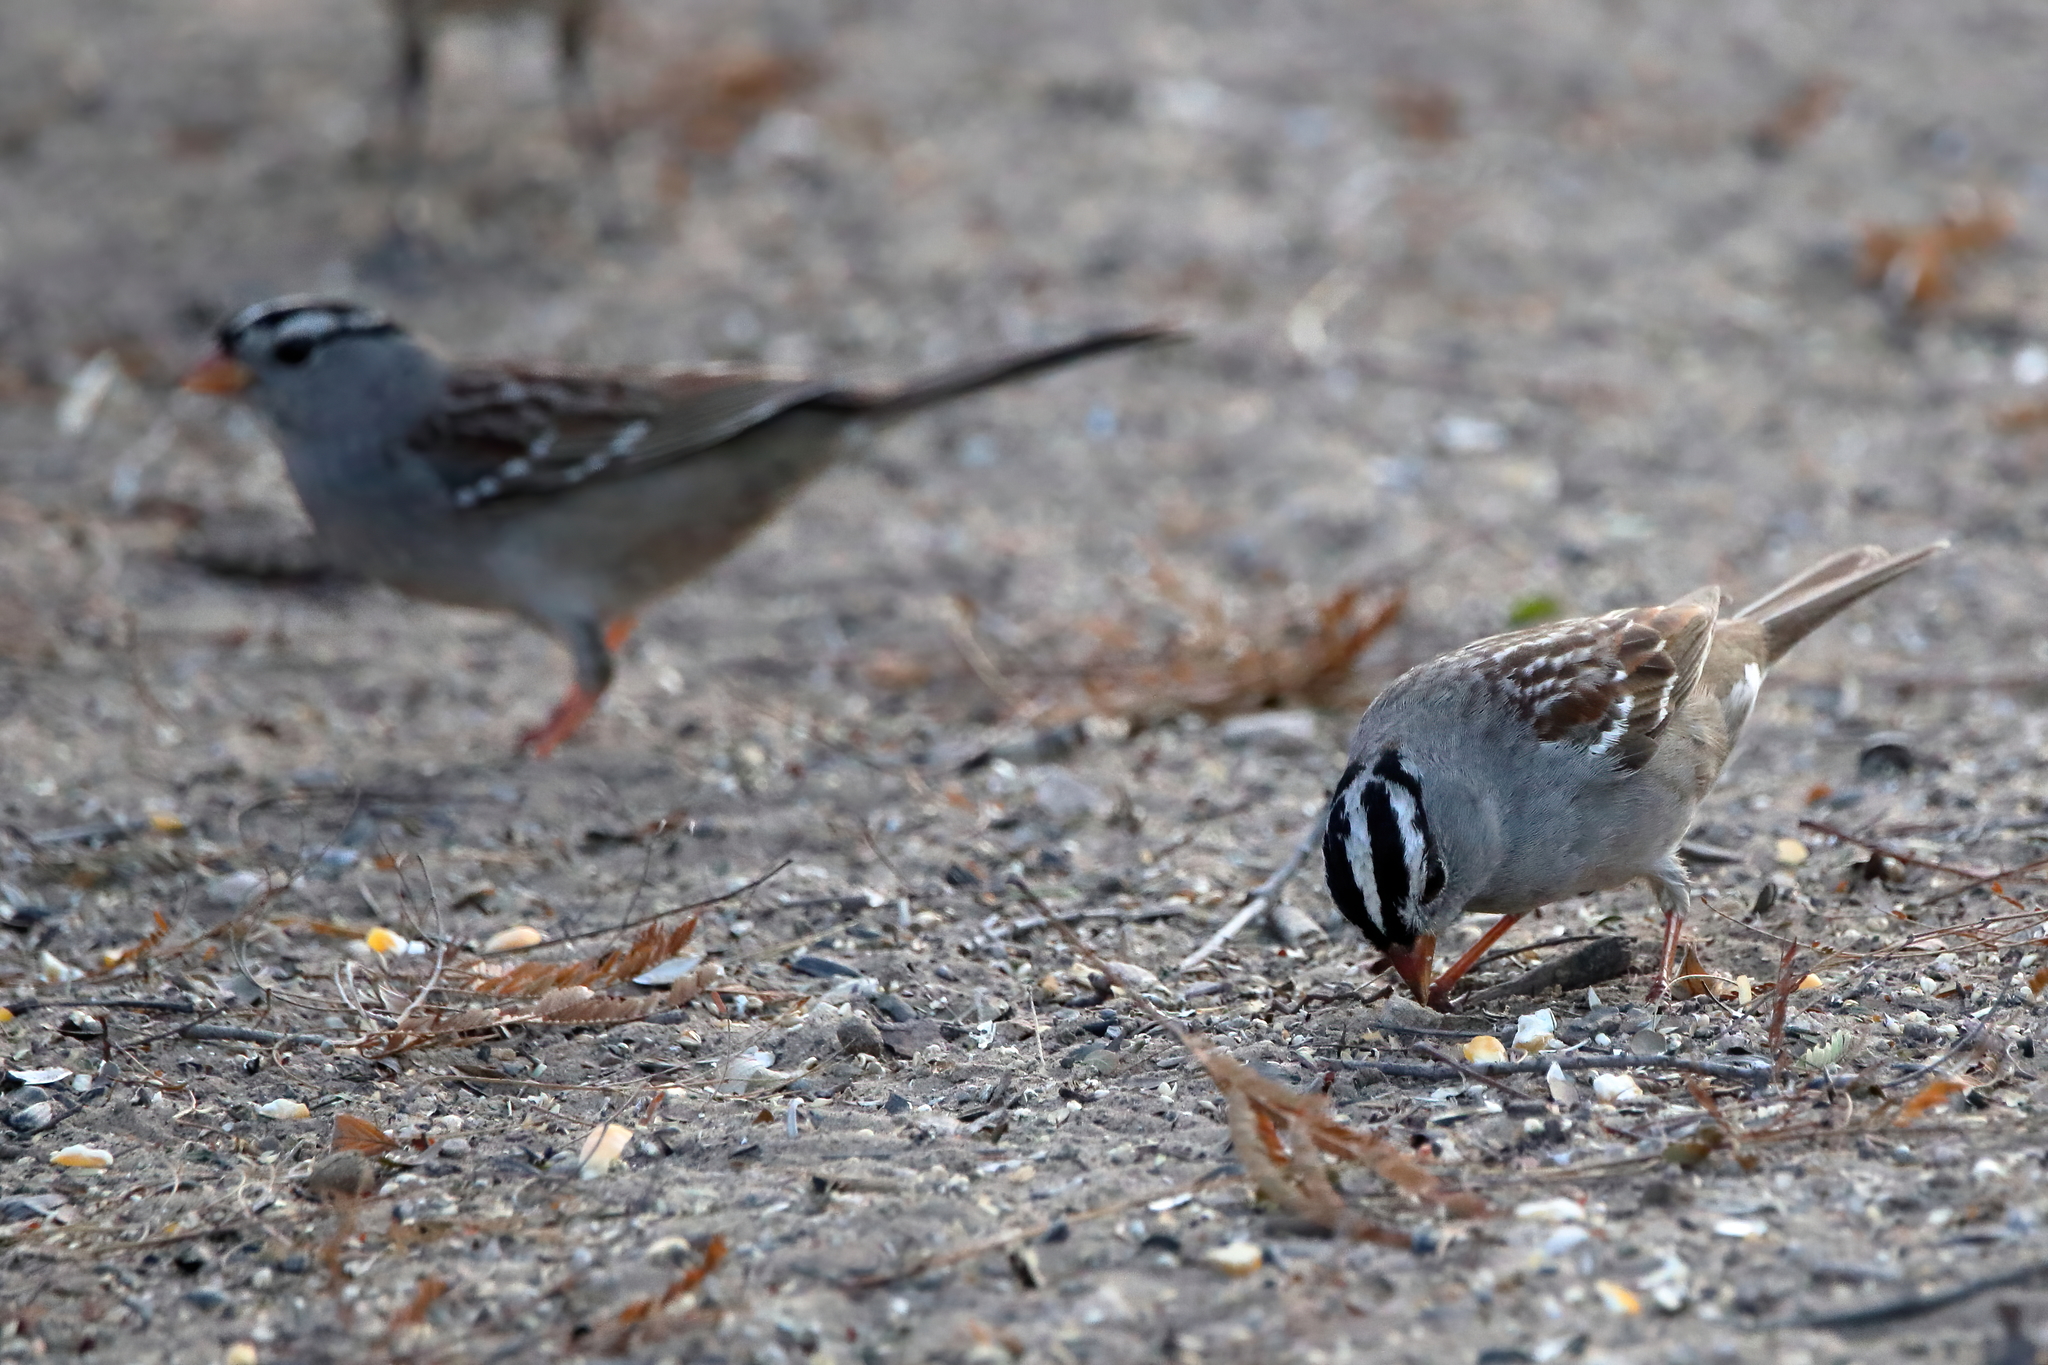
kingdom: Animalia
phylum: Chordata
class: Aves
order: Passeriformes
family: Passerellidae
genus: Zonotrichia
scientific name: Zonotrichia leucophrys
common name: White-crowned sparrow
